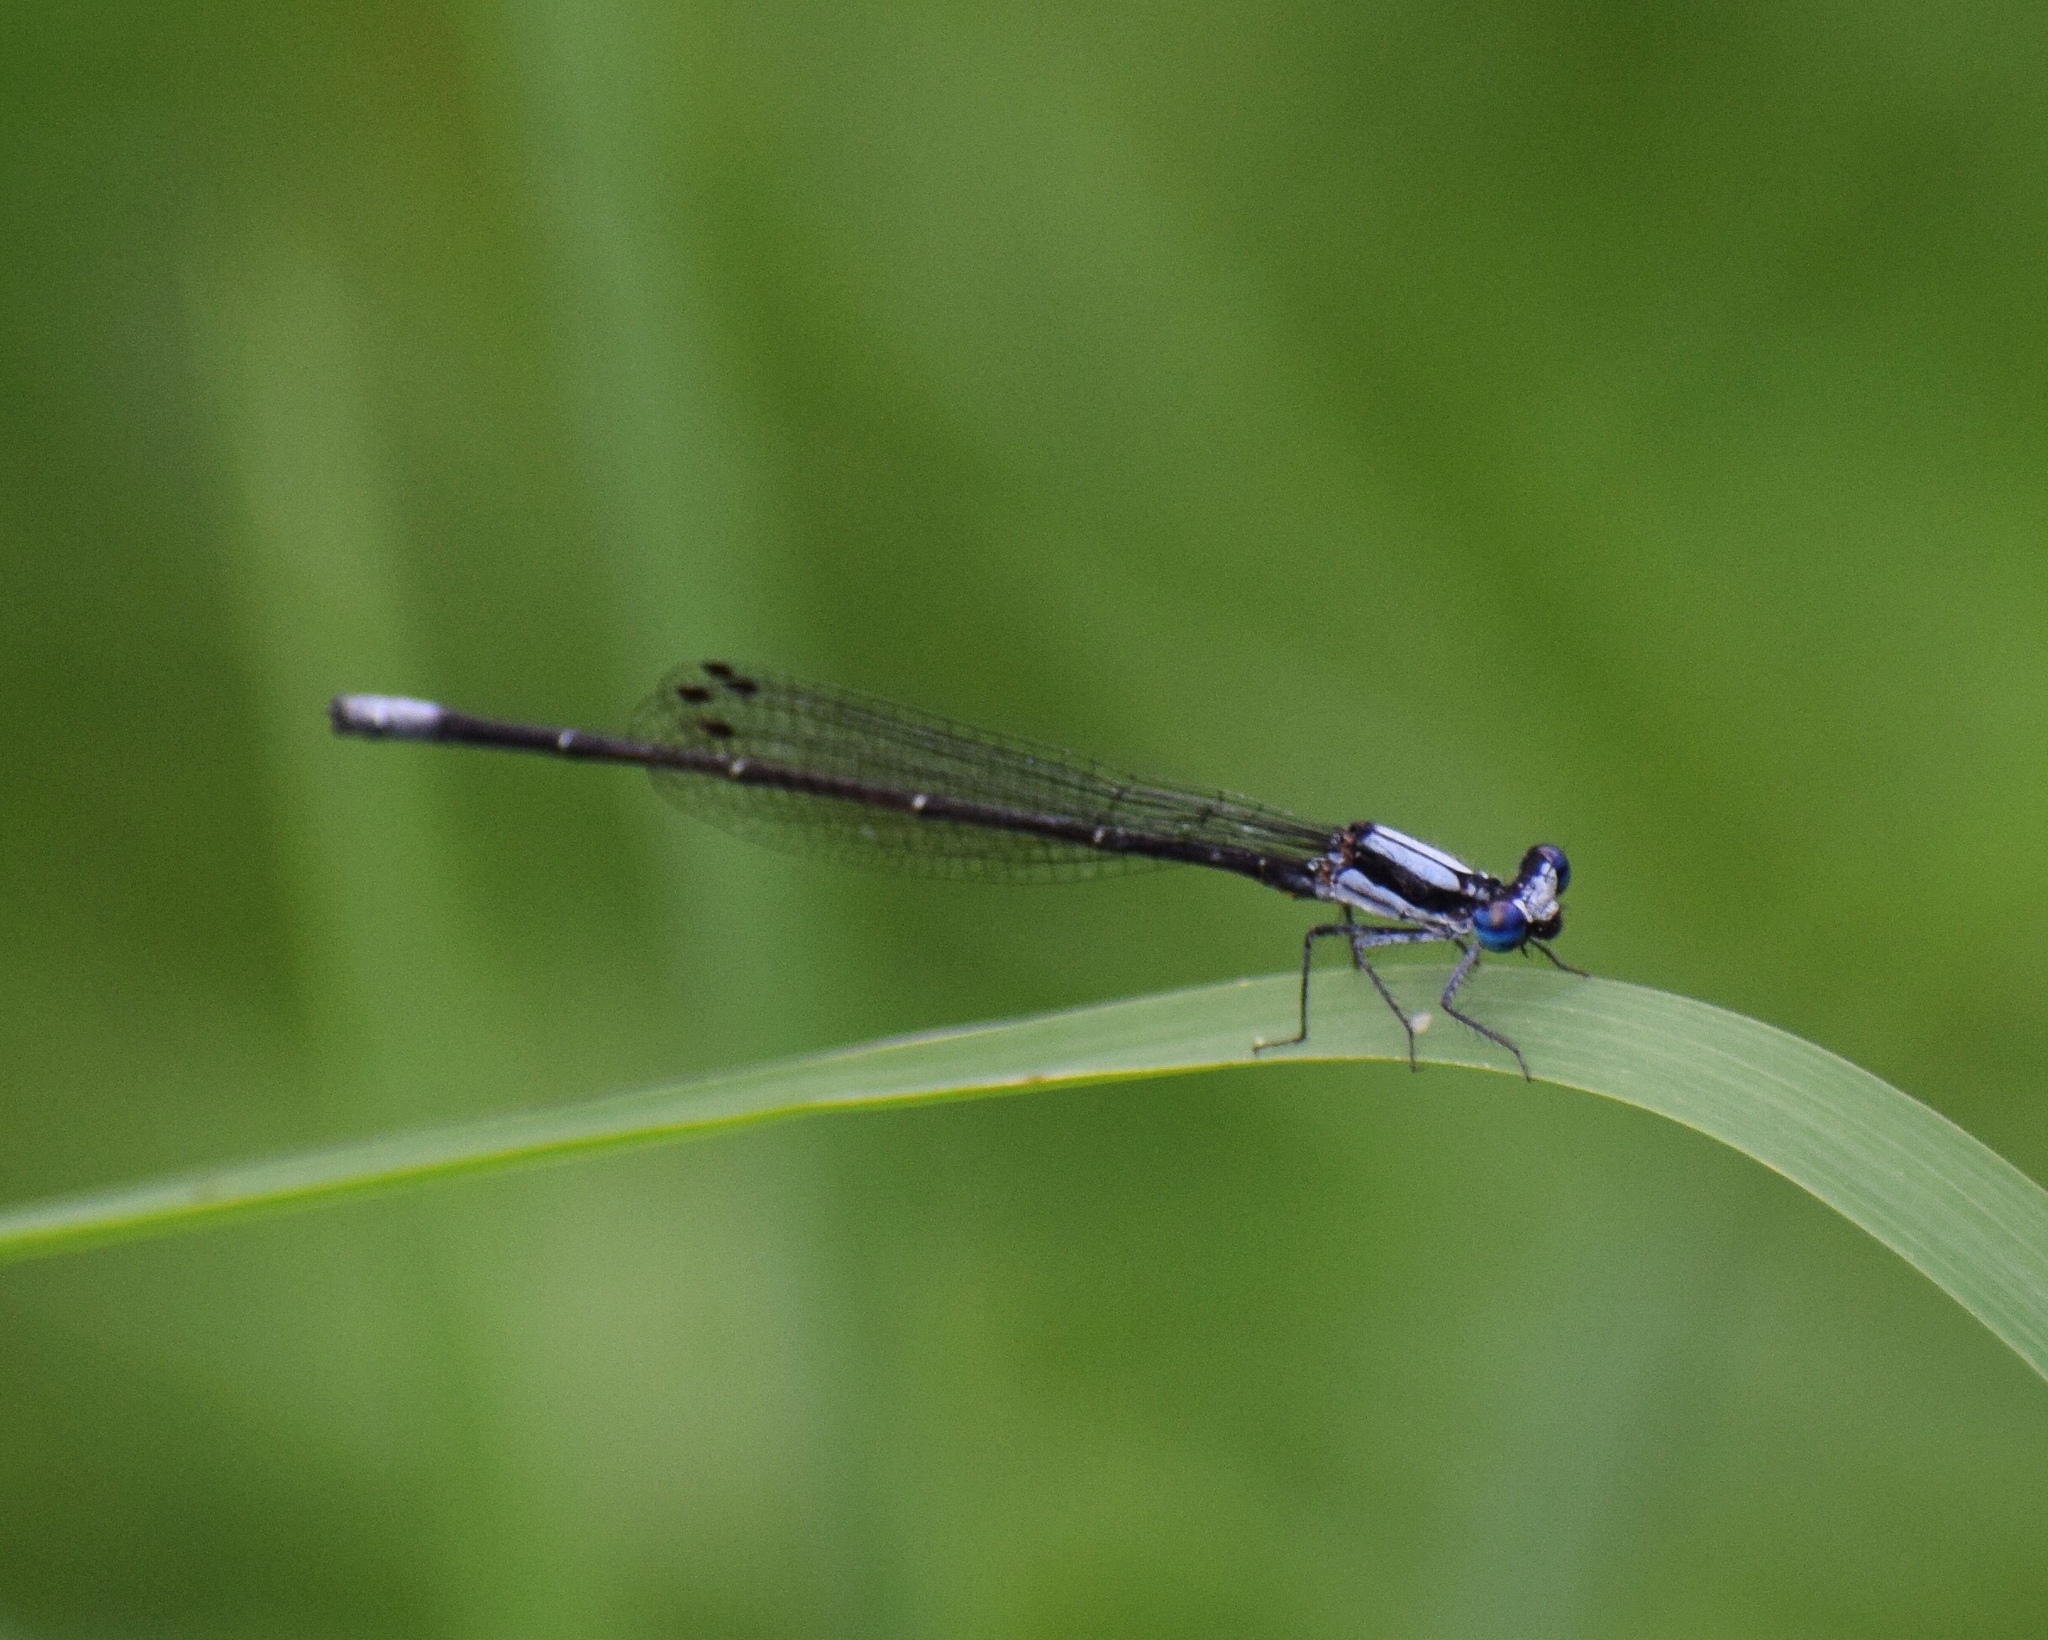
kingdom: Animalia
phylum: Arthropoda
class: Insecta
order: Odonata
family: Platycnemididae
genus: Elattoneura
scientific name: Elattoneura glauca
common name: Common threadtail
